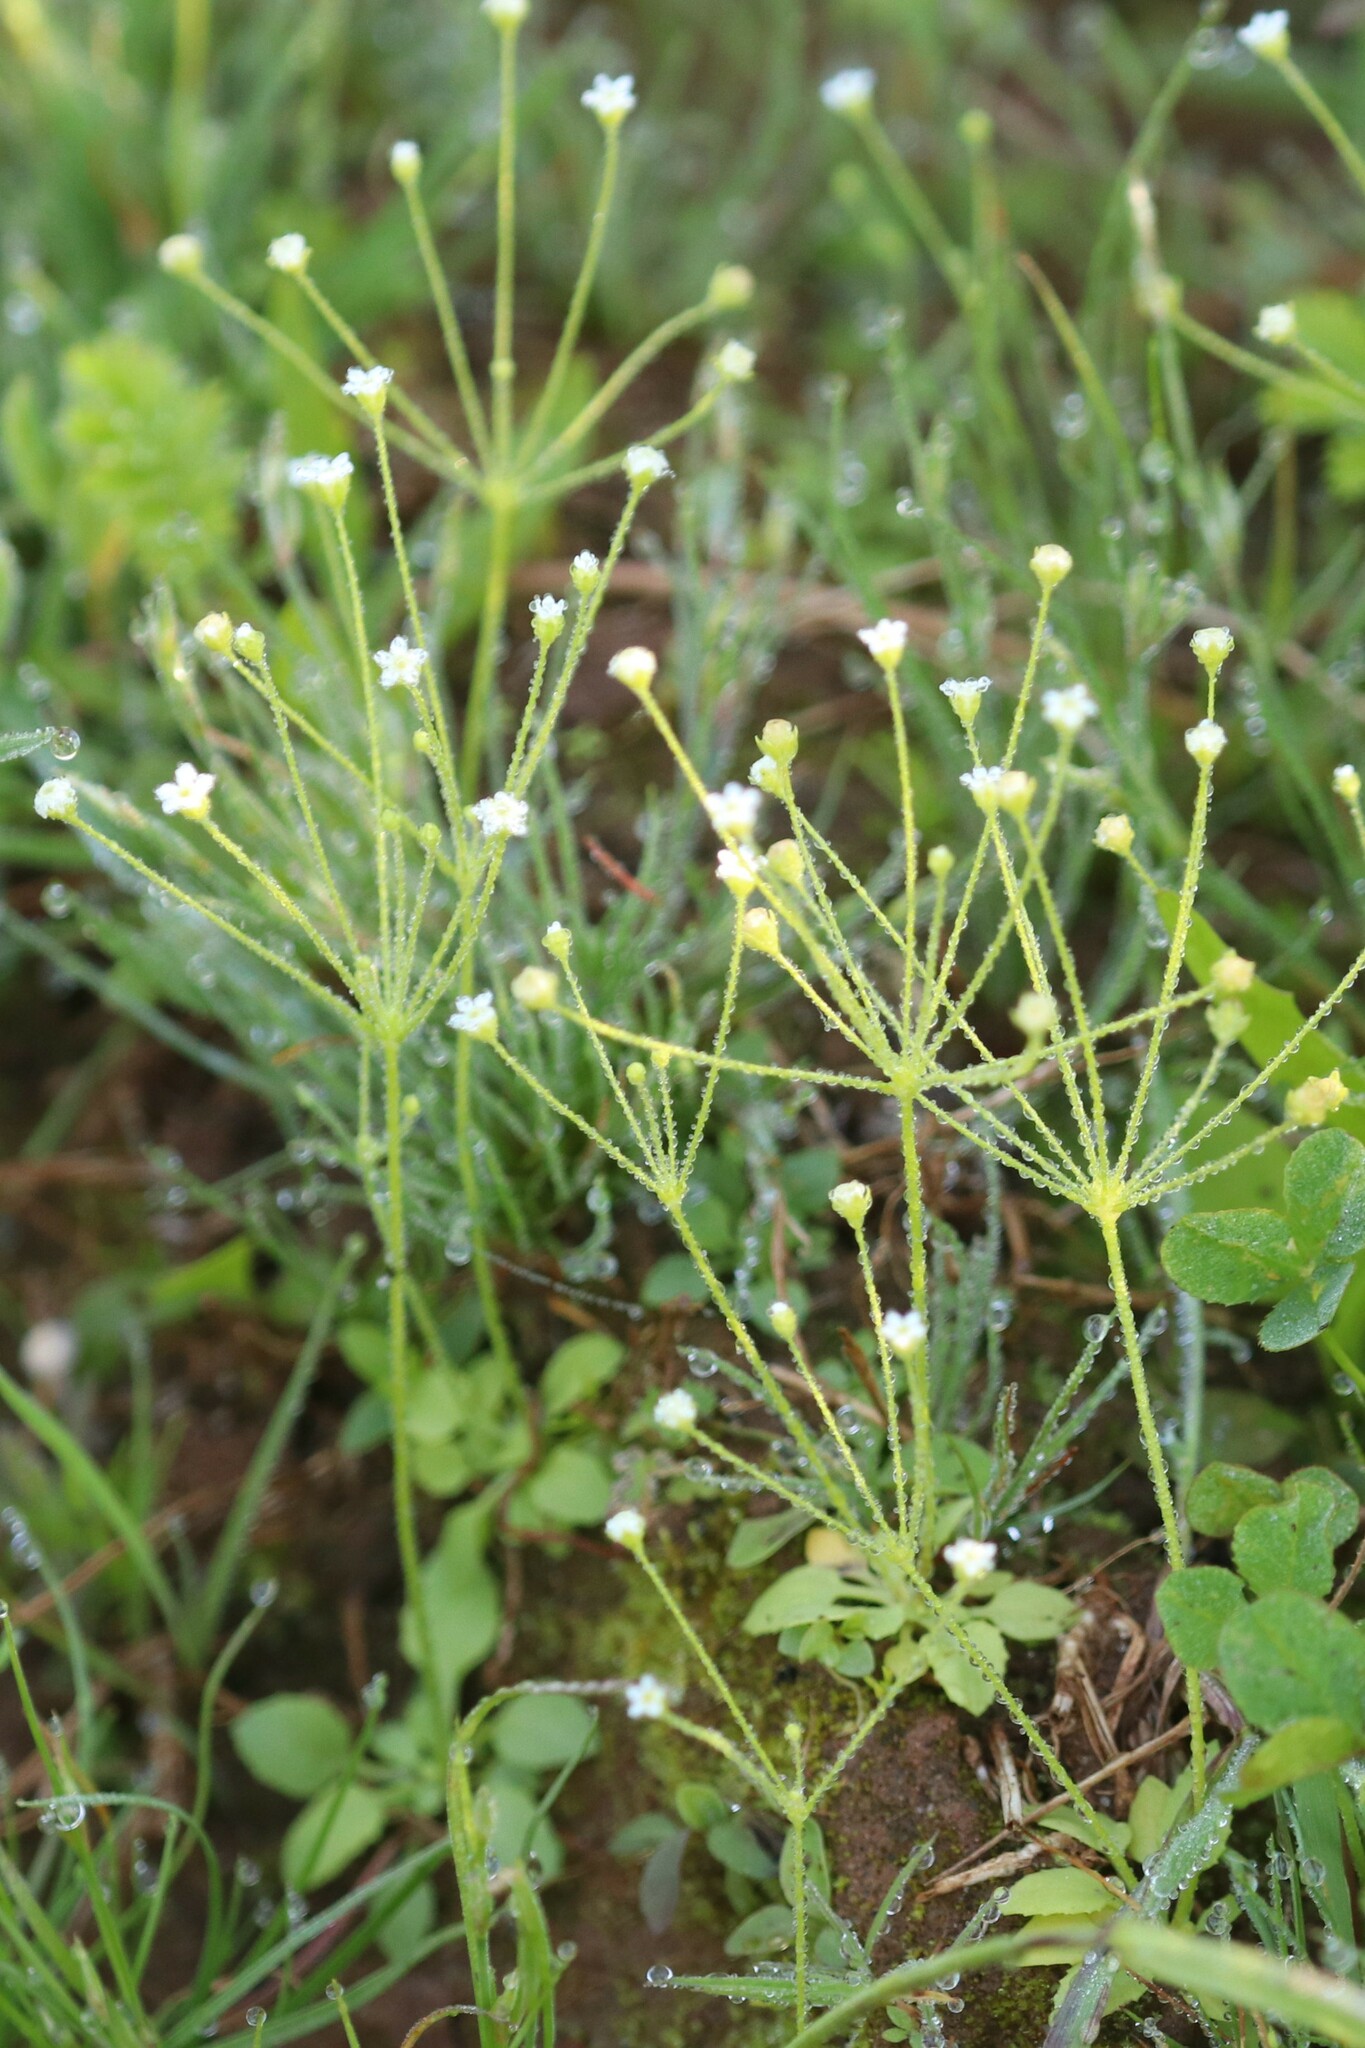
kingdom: Plantae
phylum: Tracheophyta
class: Magnoliopsida
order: Ericales
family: Primulaceae
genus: Androsace
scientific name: Androsace filiformis
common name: Filiform rock jasmine
